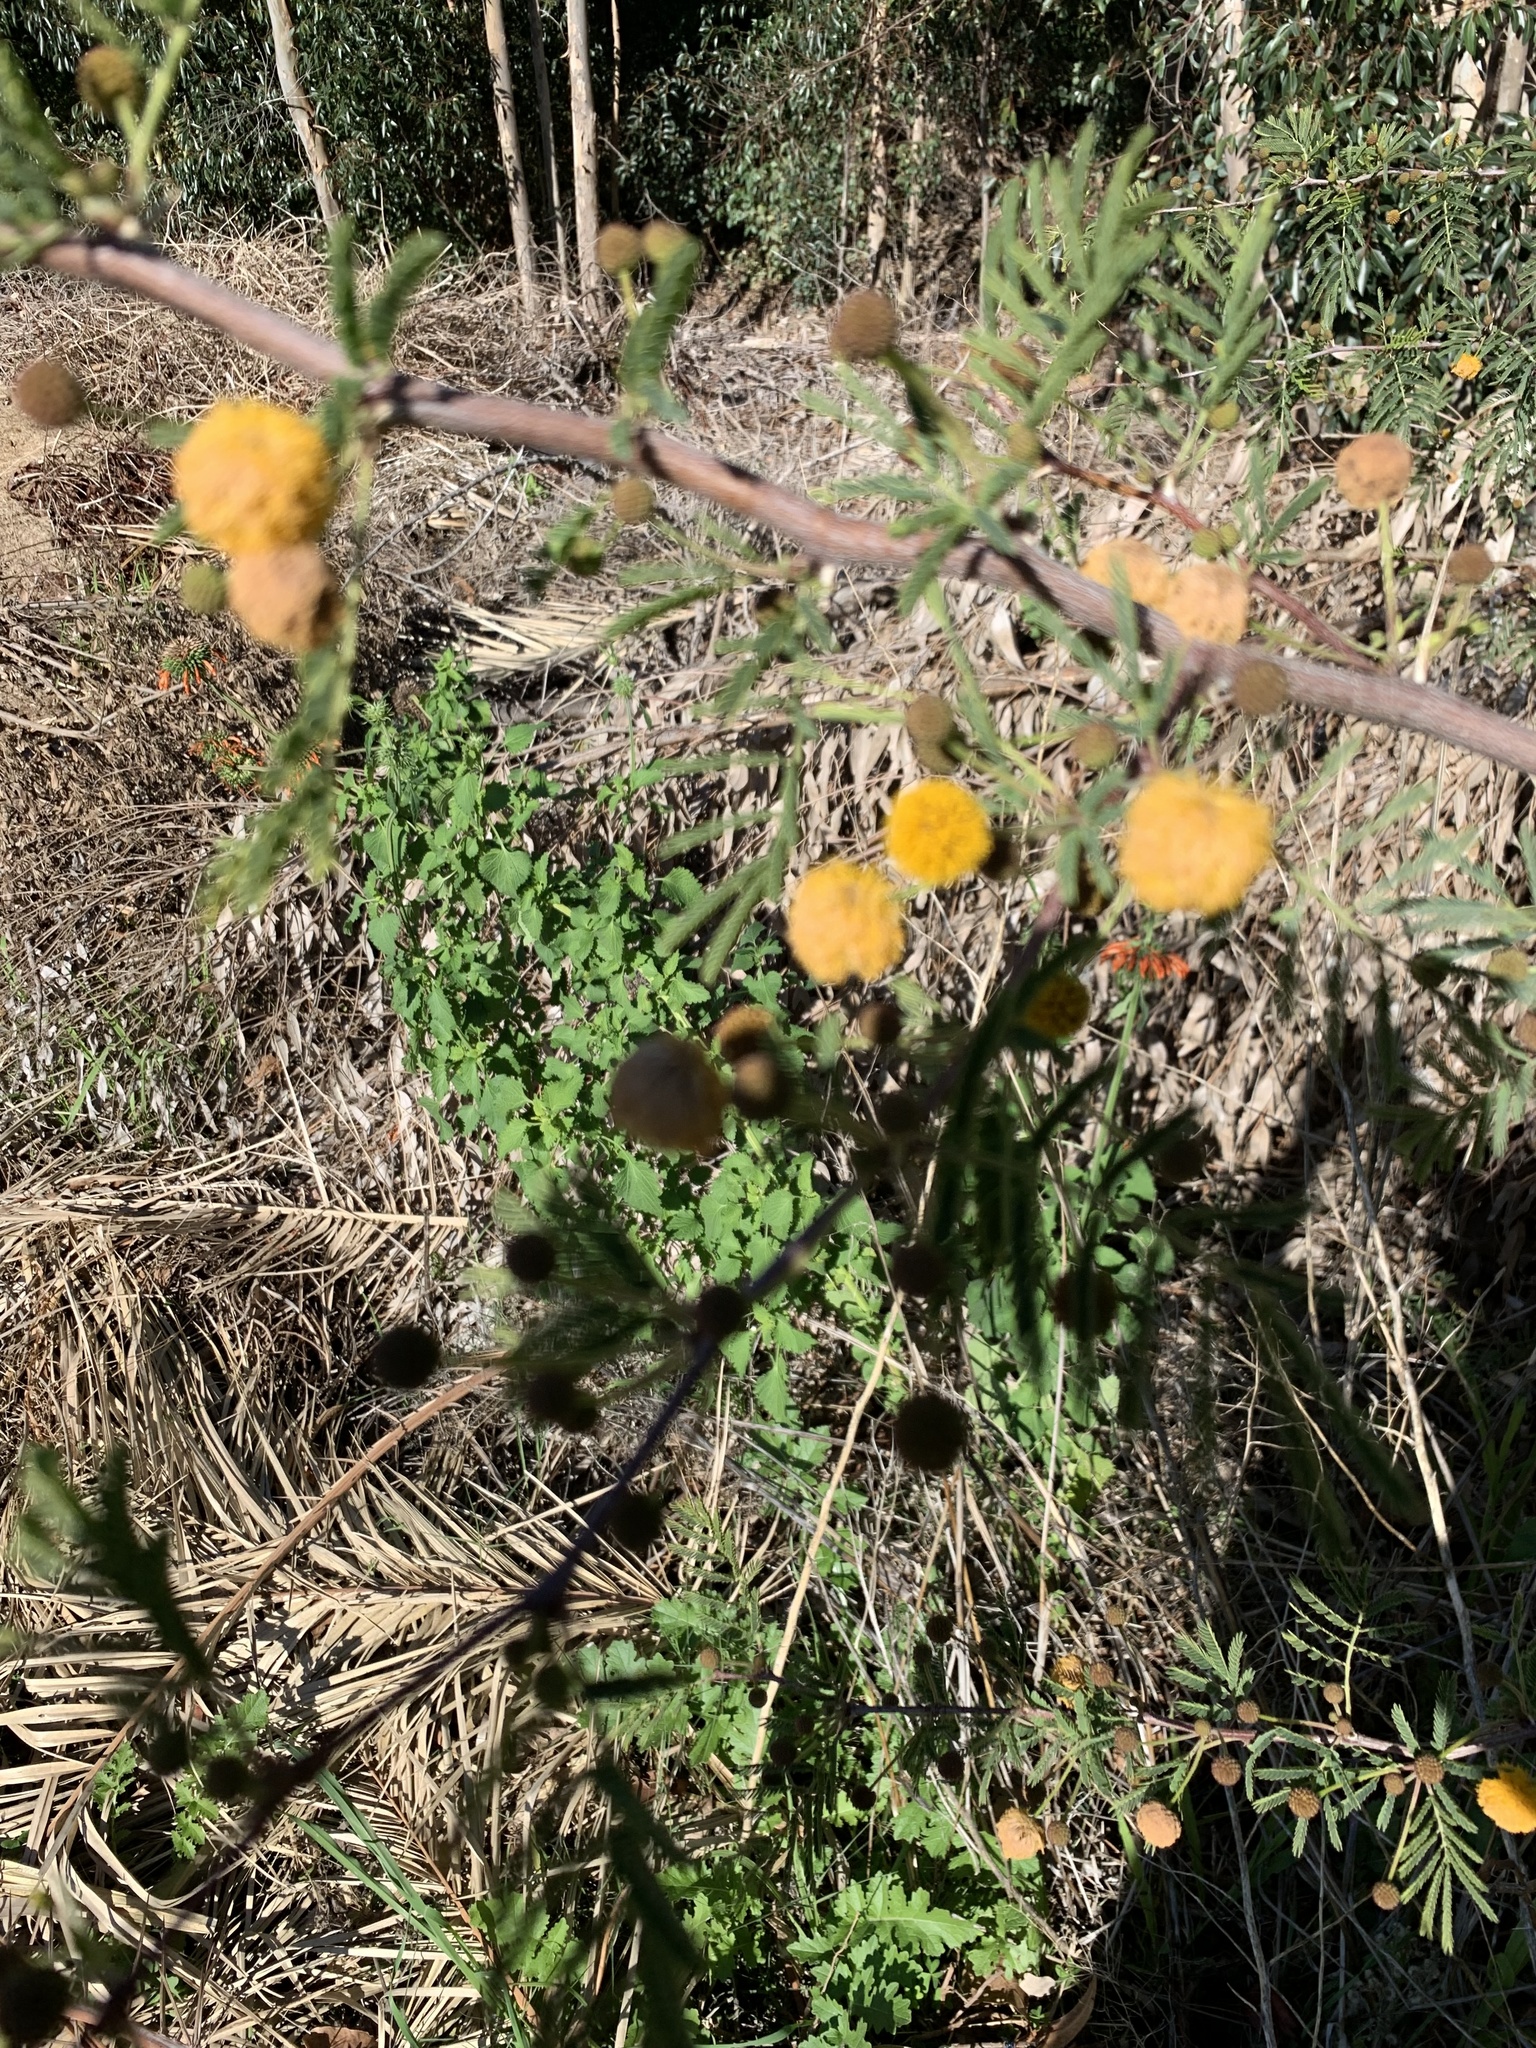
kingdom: Plantae
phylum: Tracheophyta
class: Magnoliopsida
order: Fabales
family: Fabaceae
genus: Vachellia
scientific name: Vachellia karroo
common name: Sweet thorn
